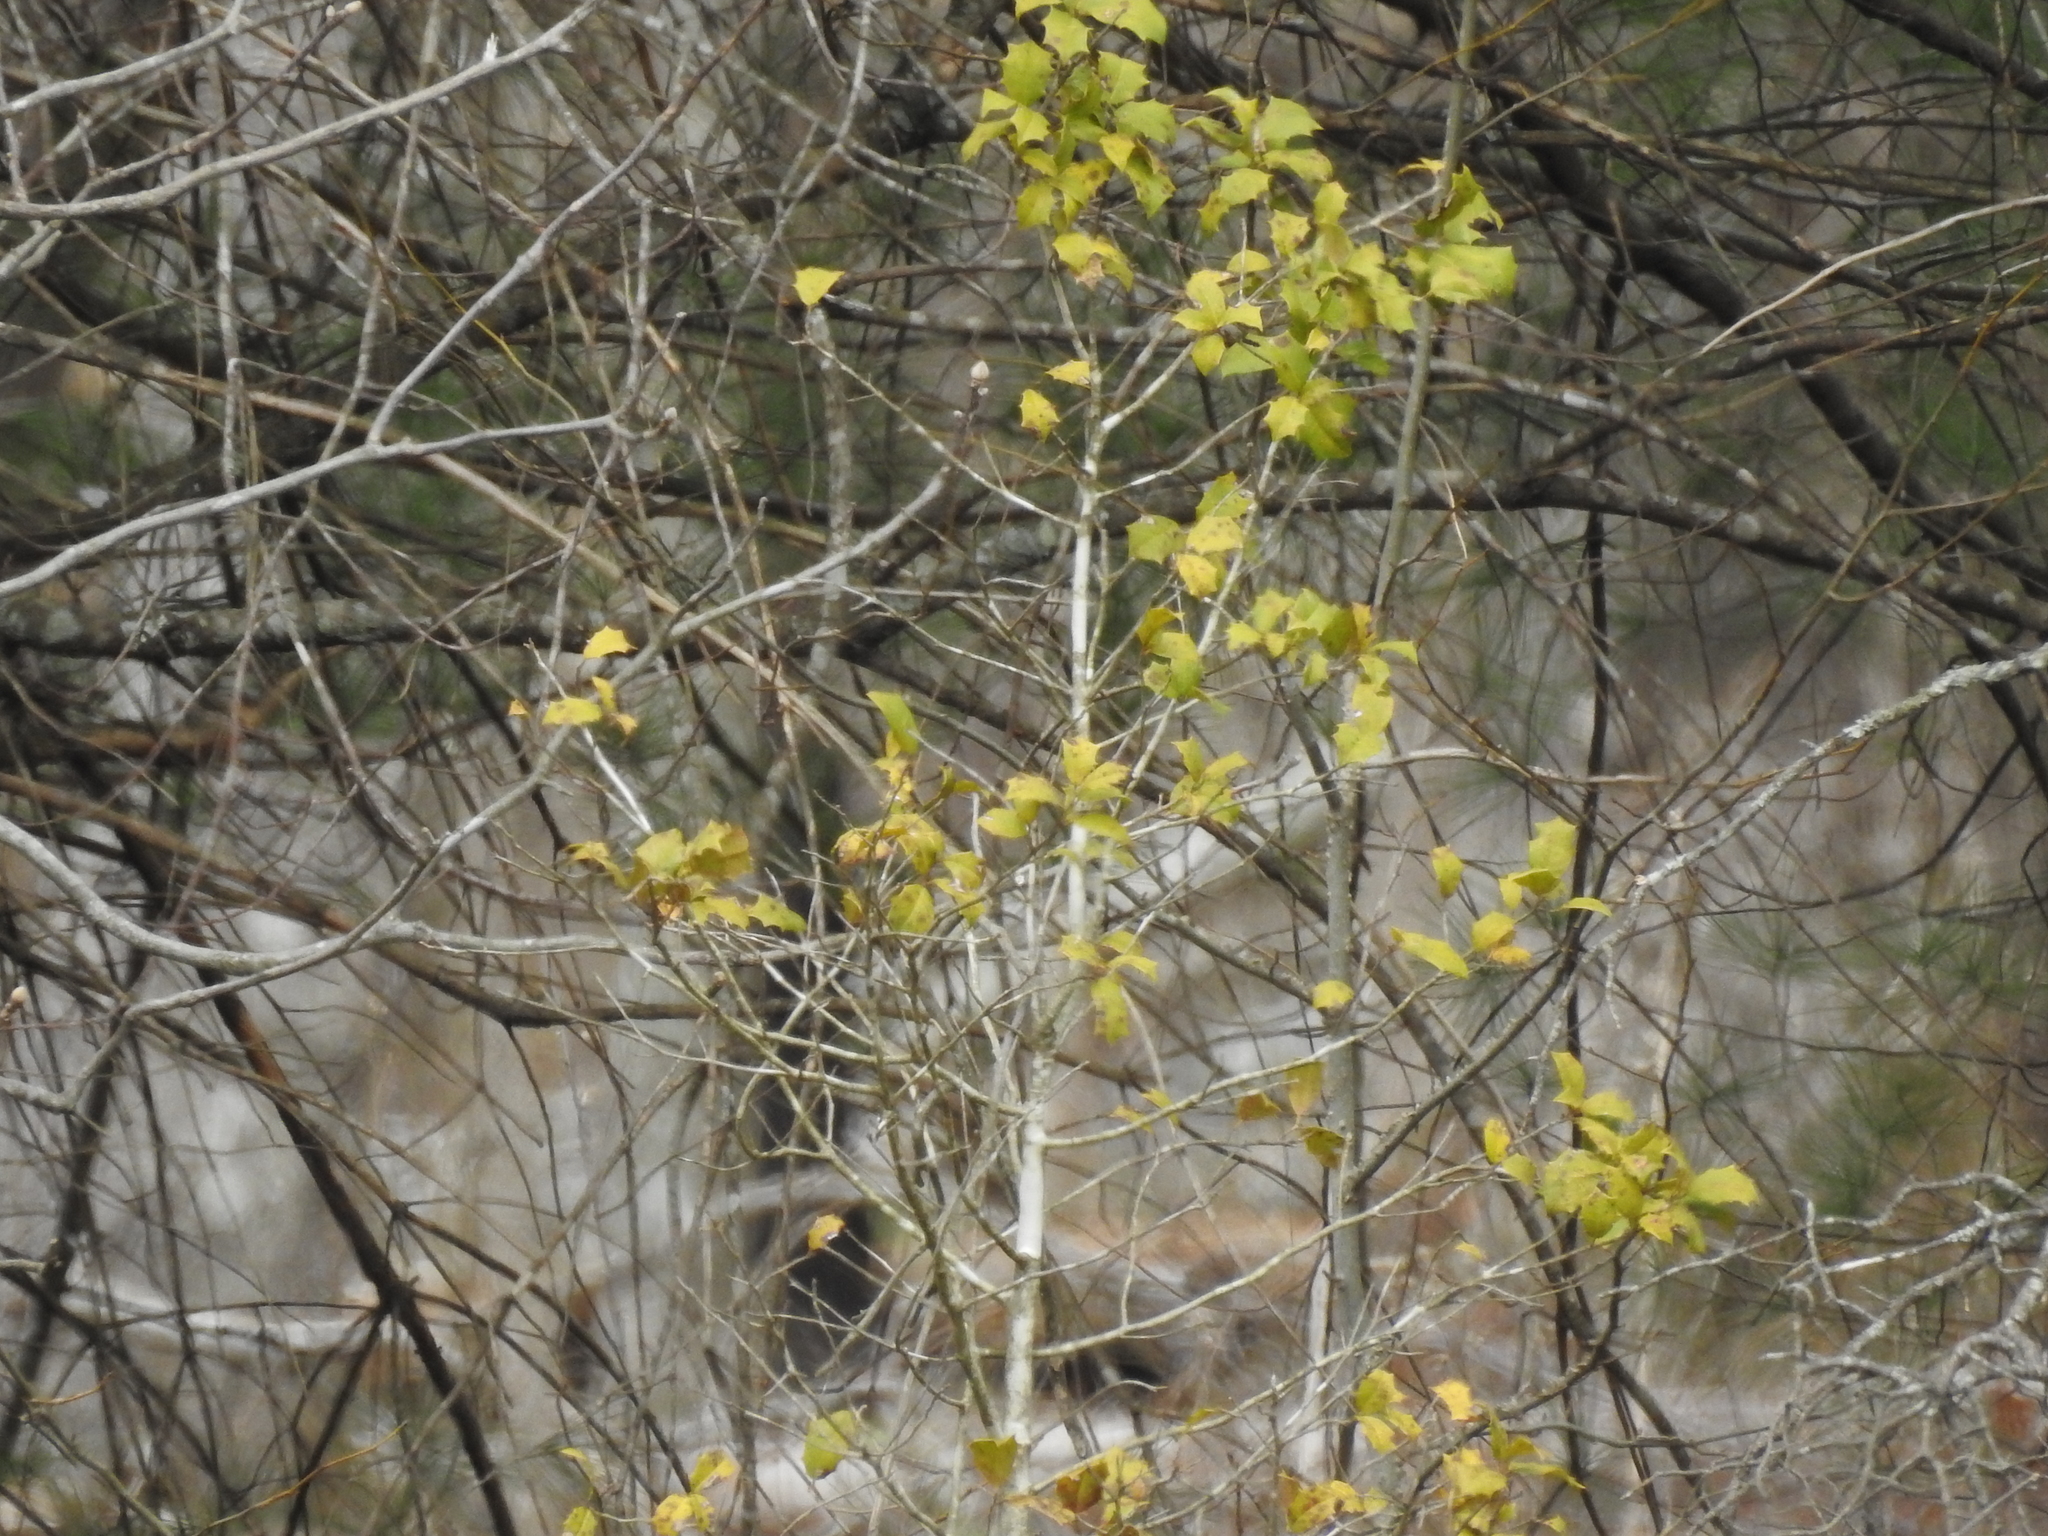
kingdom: Plantae
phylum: Tracheophyta
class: Magnoliopsida
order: Aquifoliales
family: Aquifoliaceae
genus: Ilex
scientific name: Ilex opaca
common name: American holly
